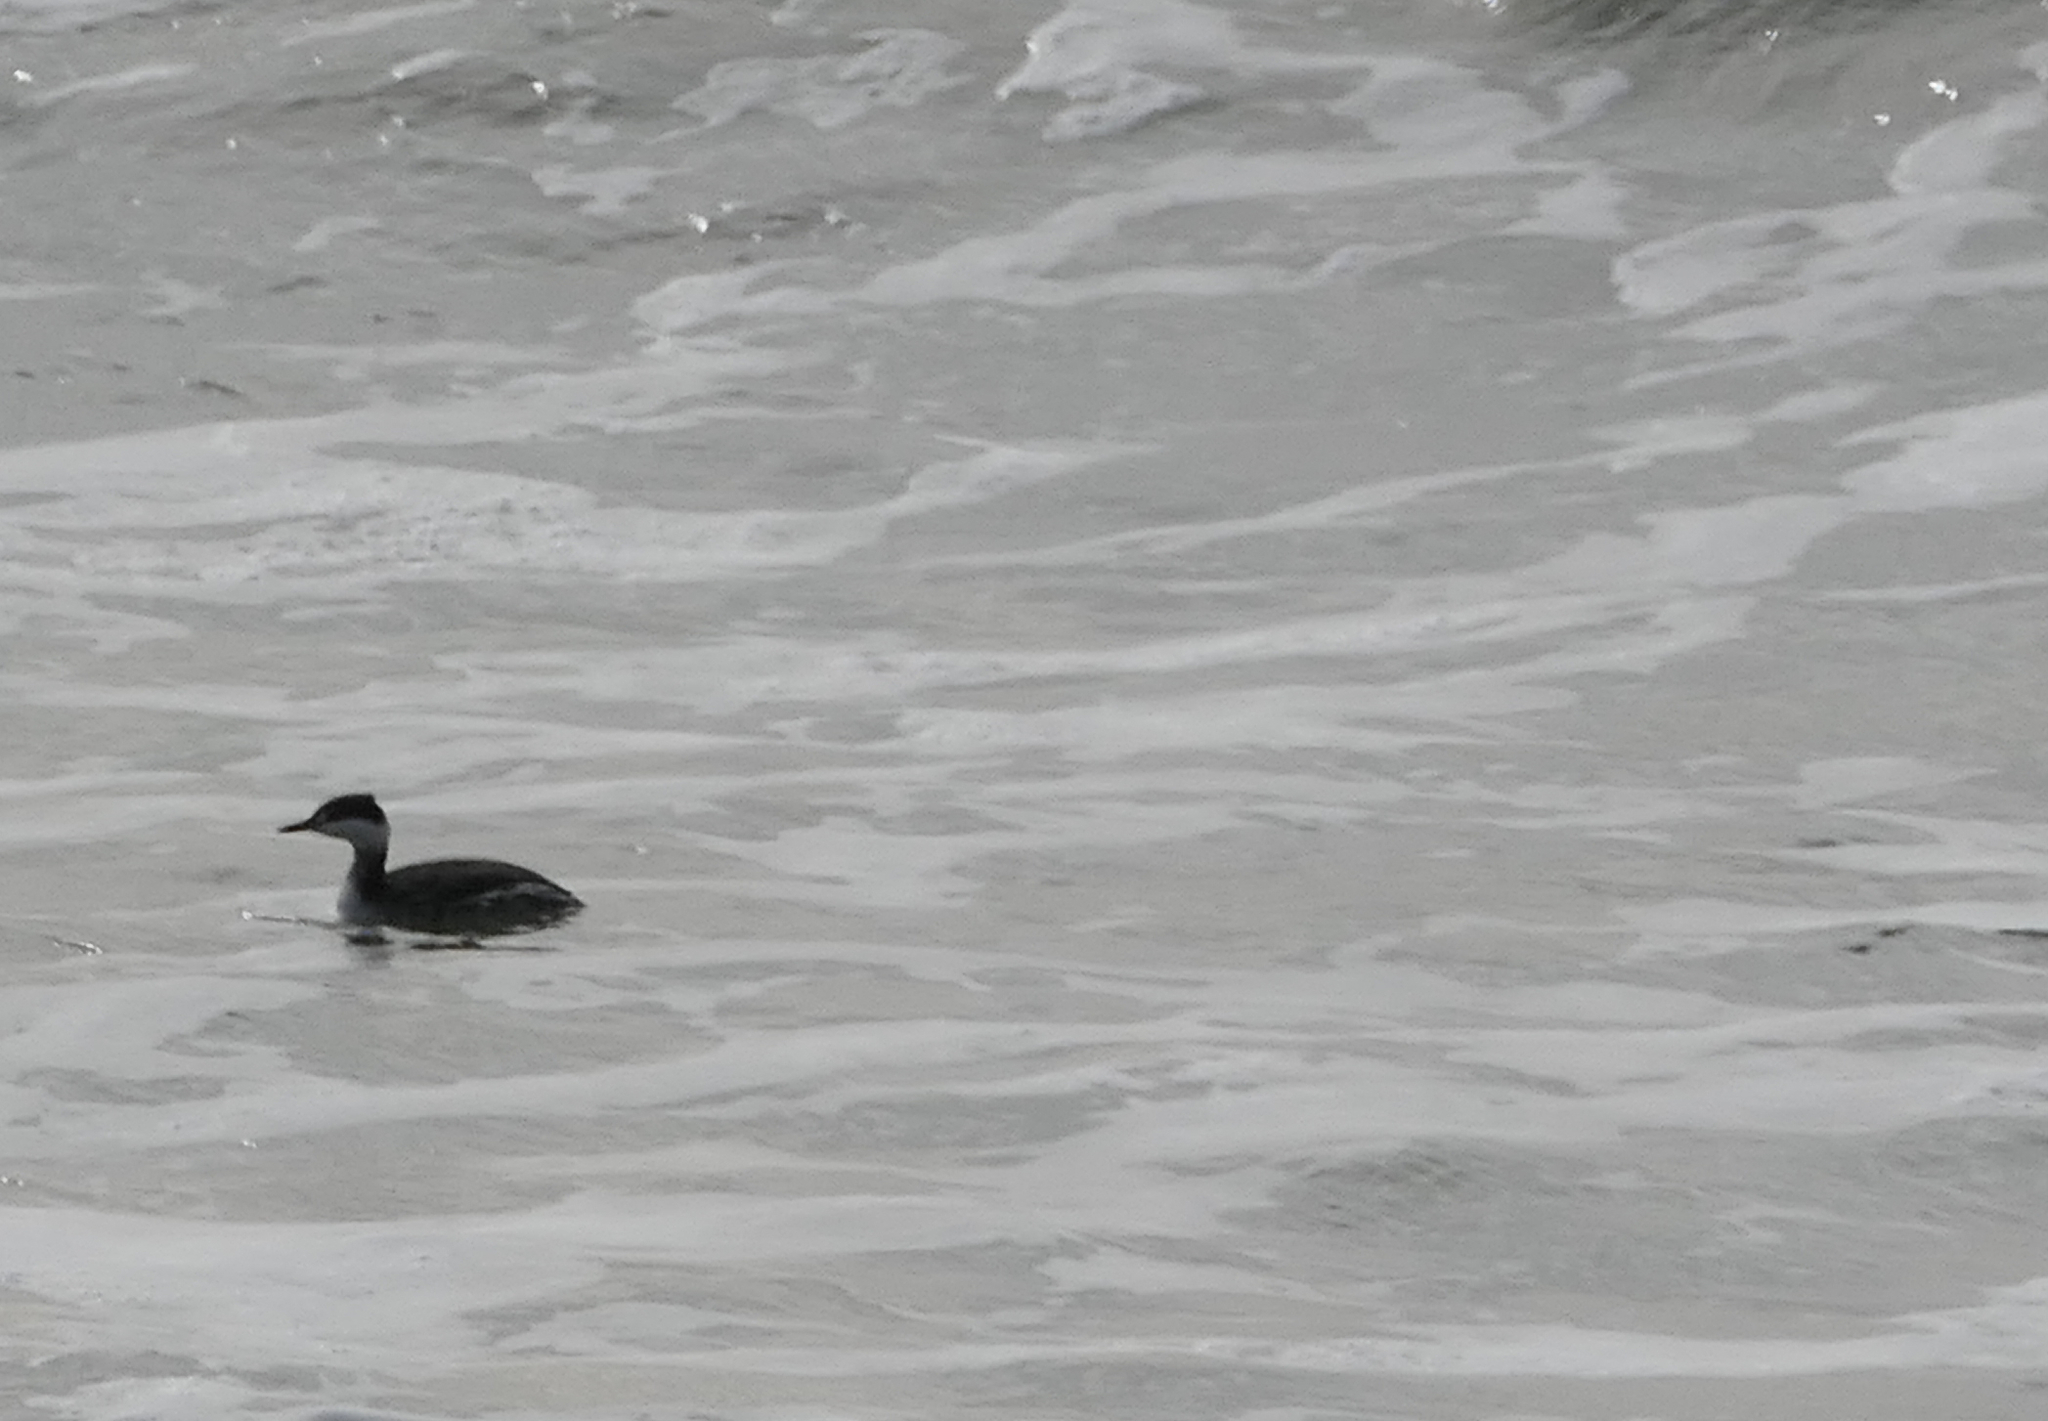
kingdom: Animalia
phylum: Chordata
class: Aves
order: Podicipediformes
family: Podicipedidae
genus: Podiceps
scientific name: Podiceps auritus
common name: Horned grebe
